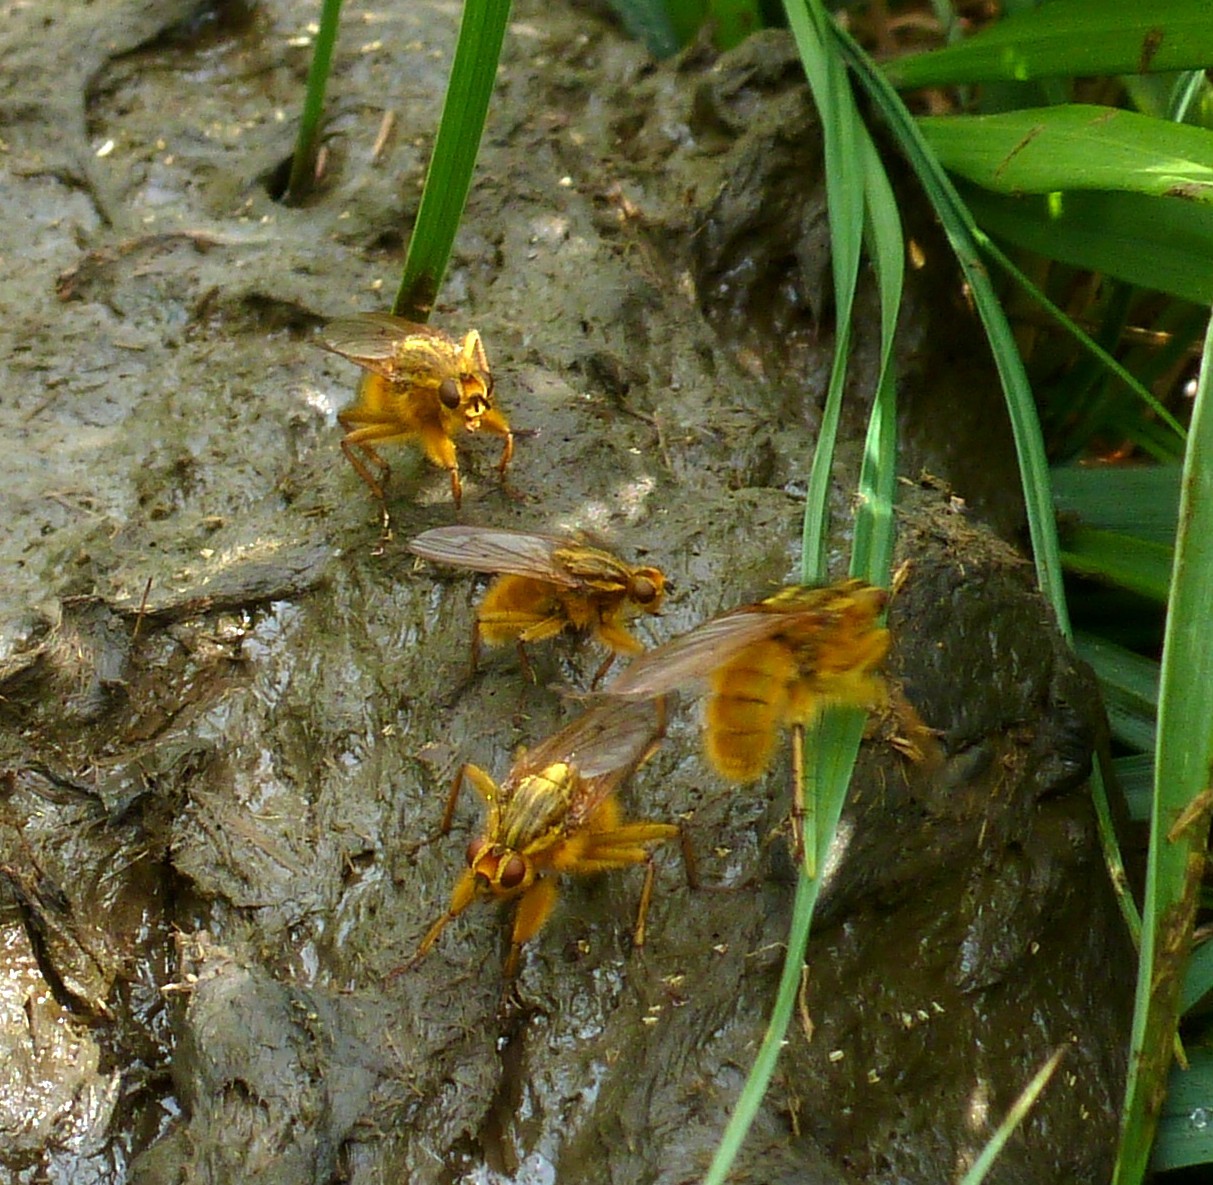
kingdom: Animalia
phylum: Arthropoda
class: Insecta
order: Diptera
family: Scathophagidae
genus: Scathophaga
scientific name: Scathophaga stercoraria
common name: Yellow dung fly
